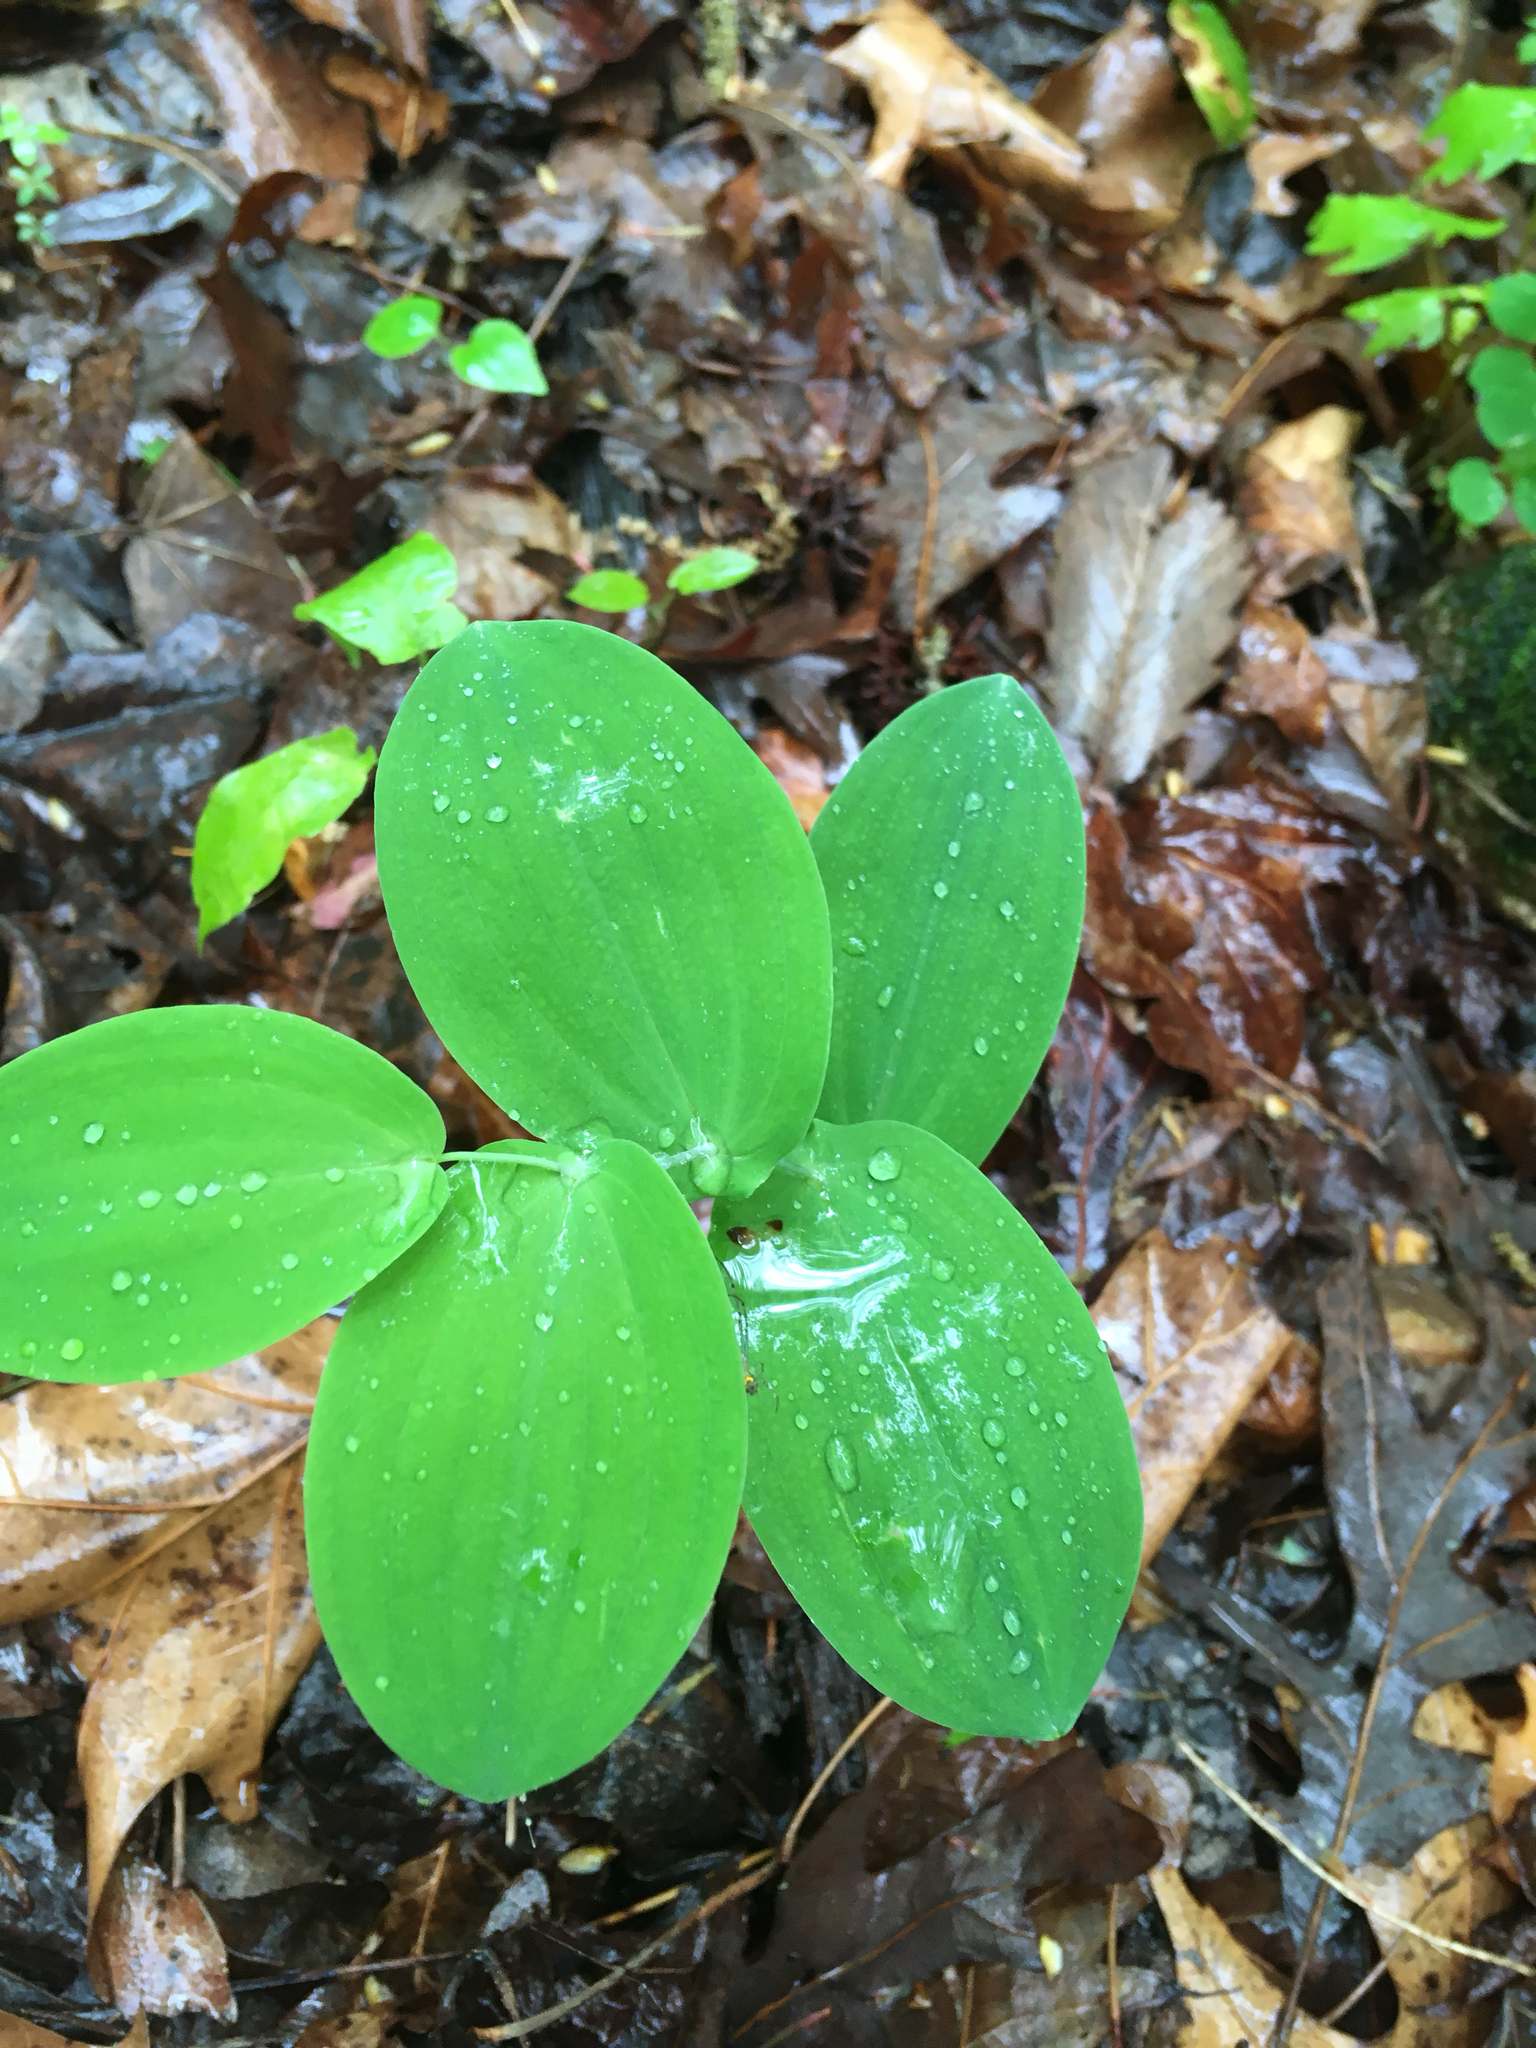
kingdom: Plantae
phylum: Tracheophyta
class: Liliopsida
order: Liliales
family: Colchicaceae
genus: Uvularia
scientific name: Uvularia perfoliata
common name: Perfoliate bellwort
